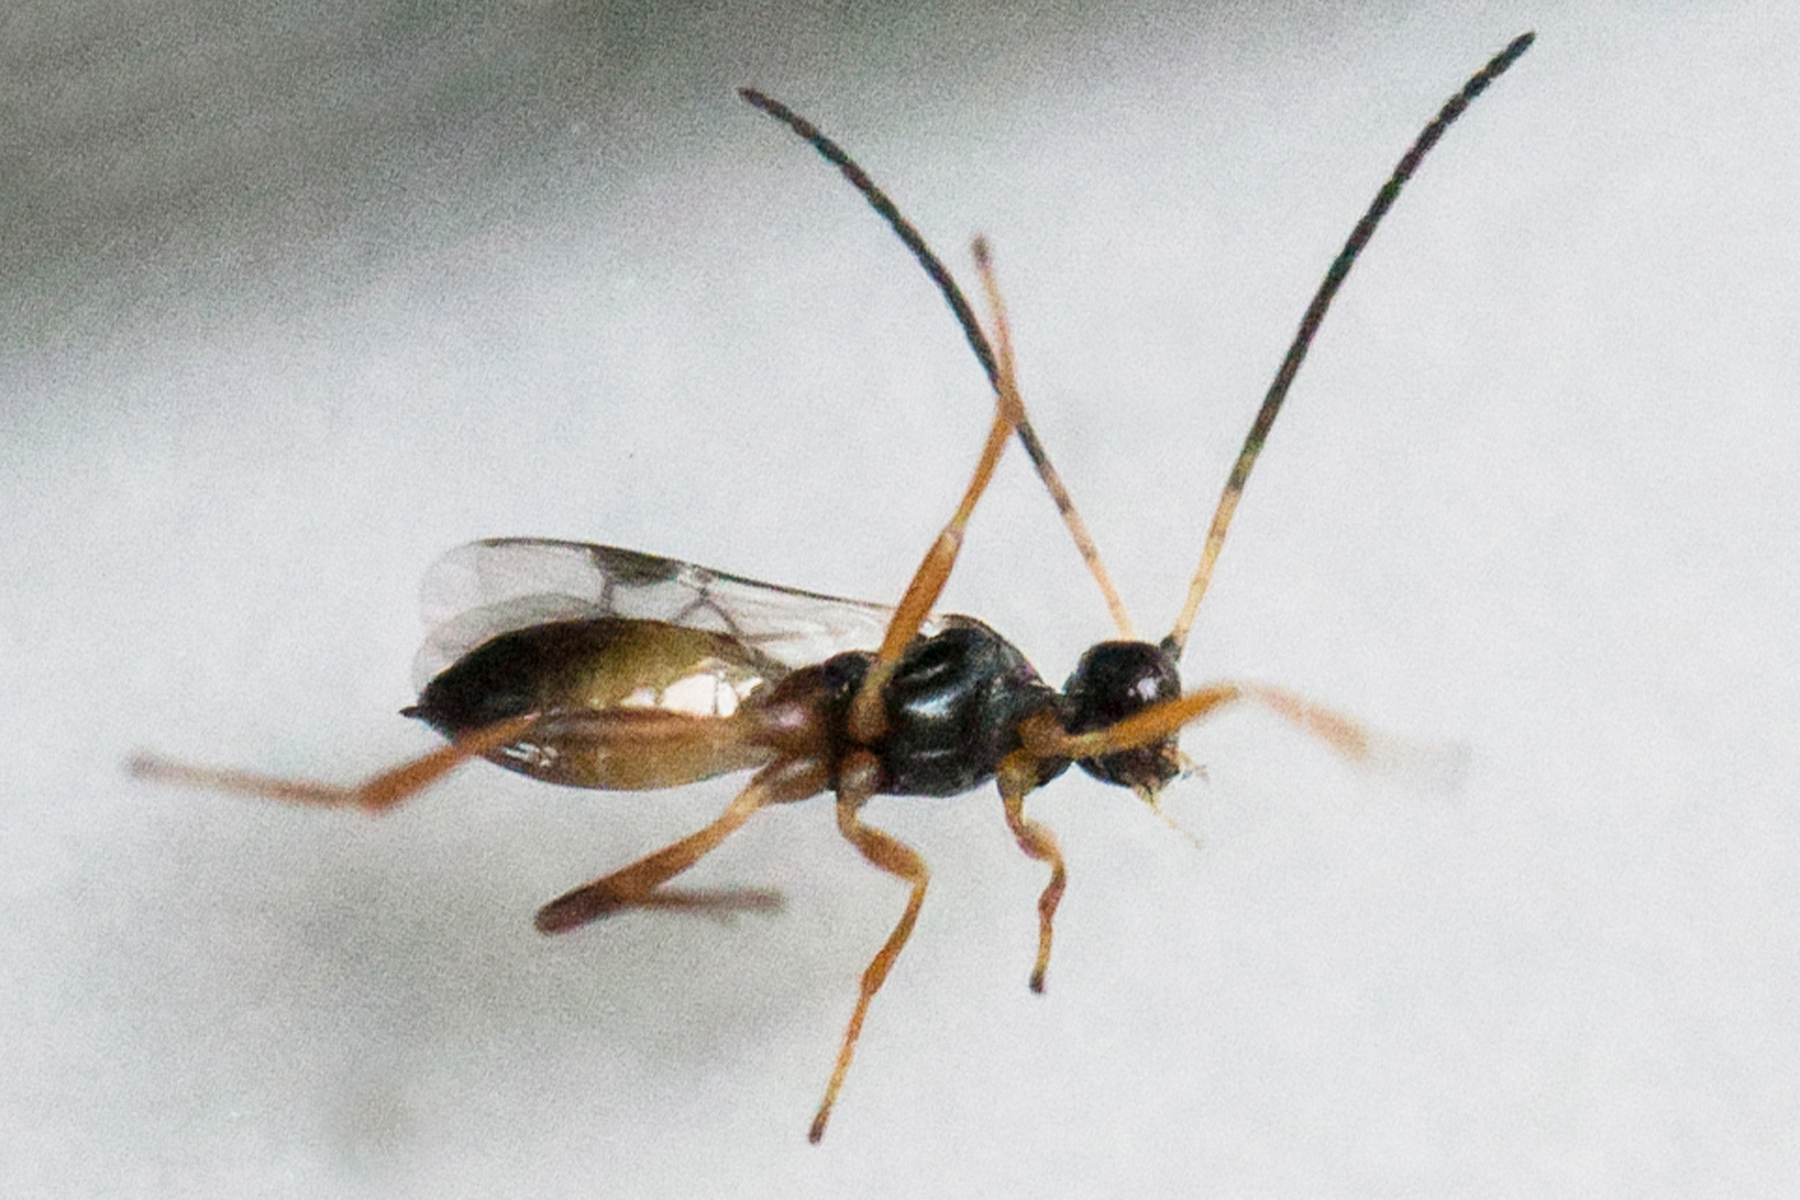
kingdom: Animalia
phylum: Arthropoda
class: Insecta
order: Hymenoptera
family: Braconidae
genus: Cotesia
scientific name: Cotesia
